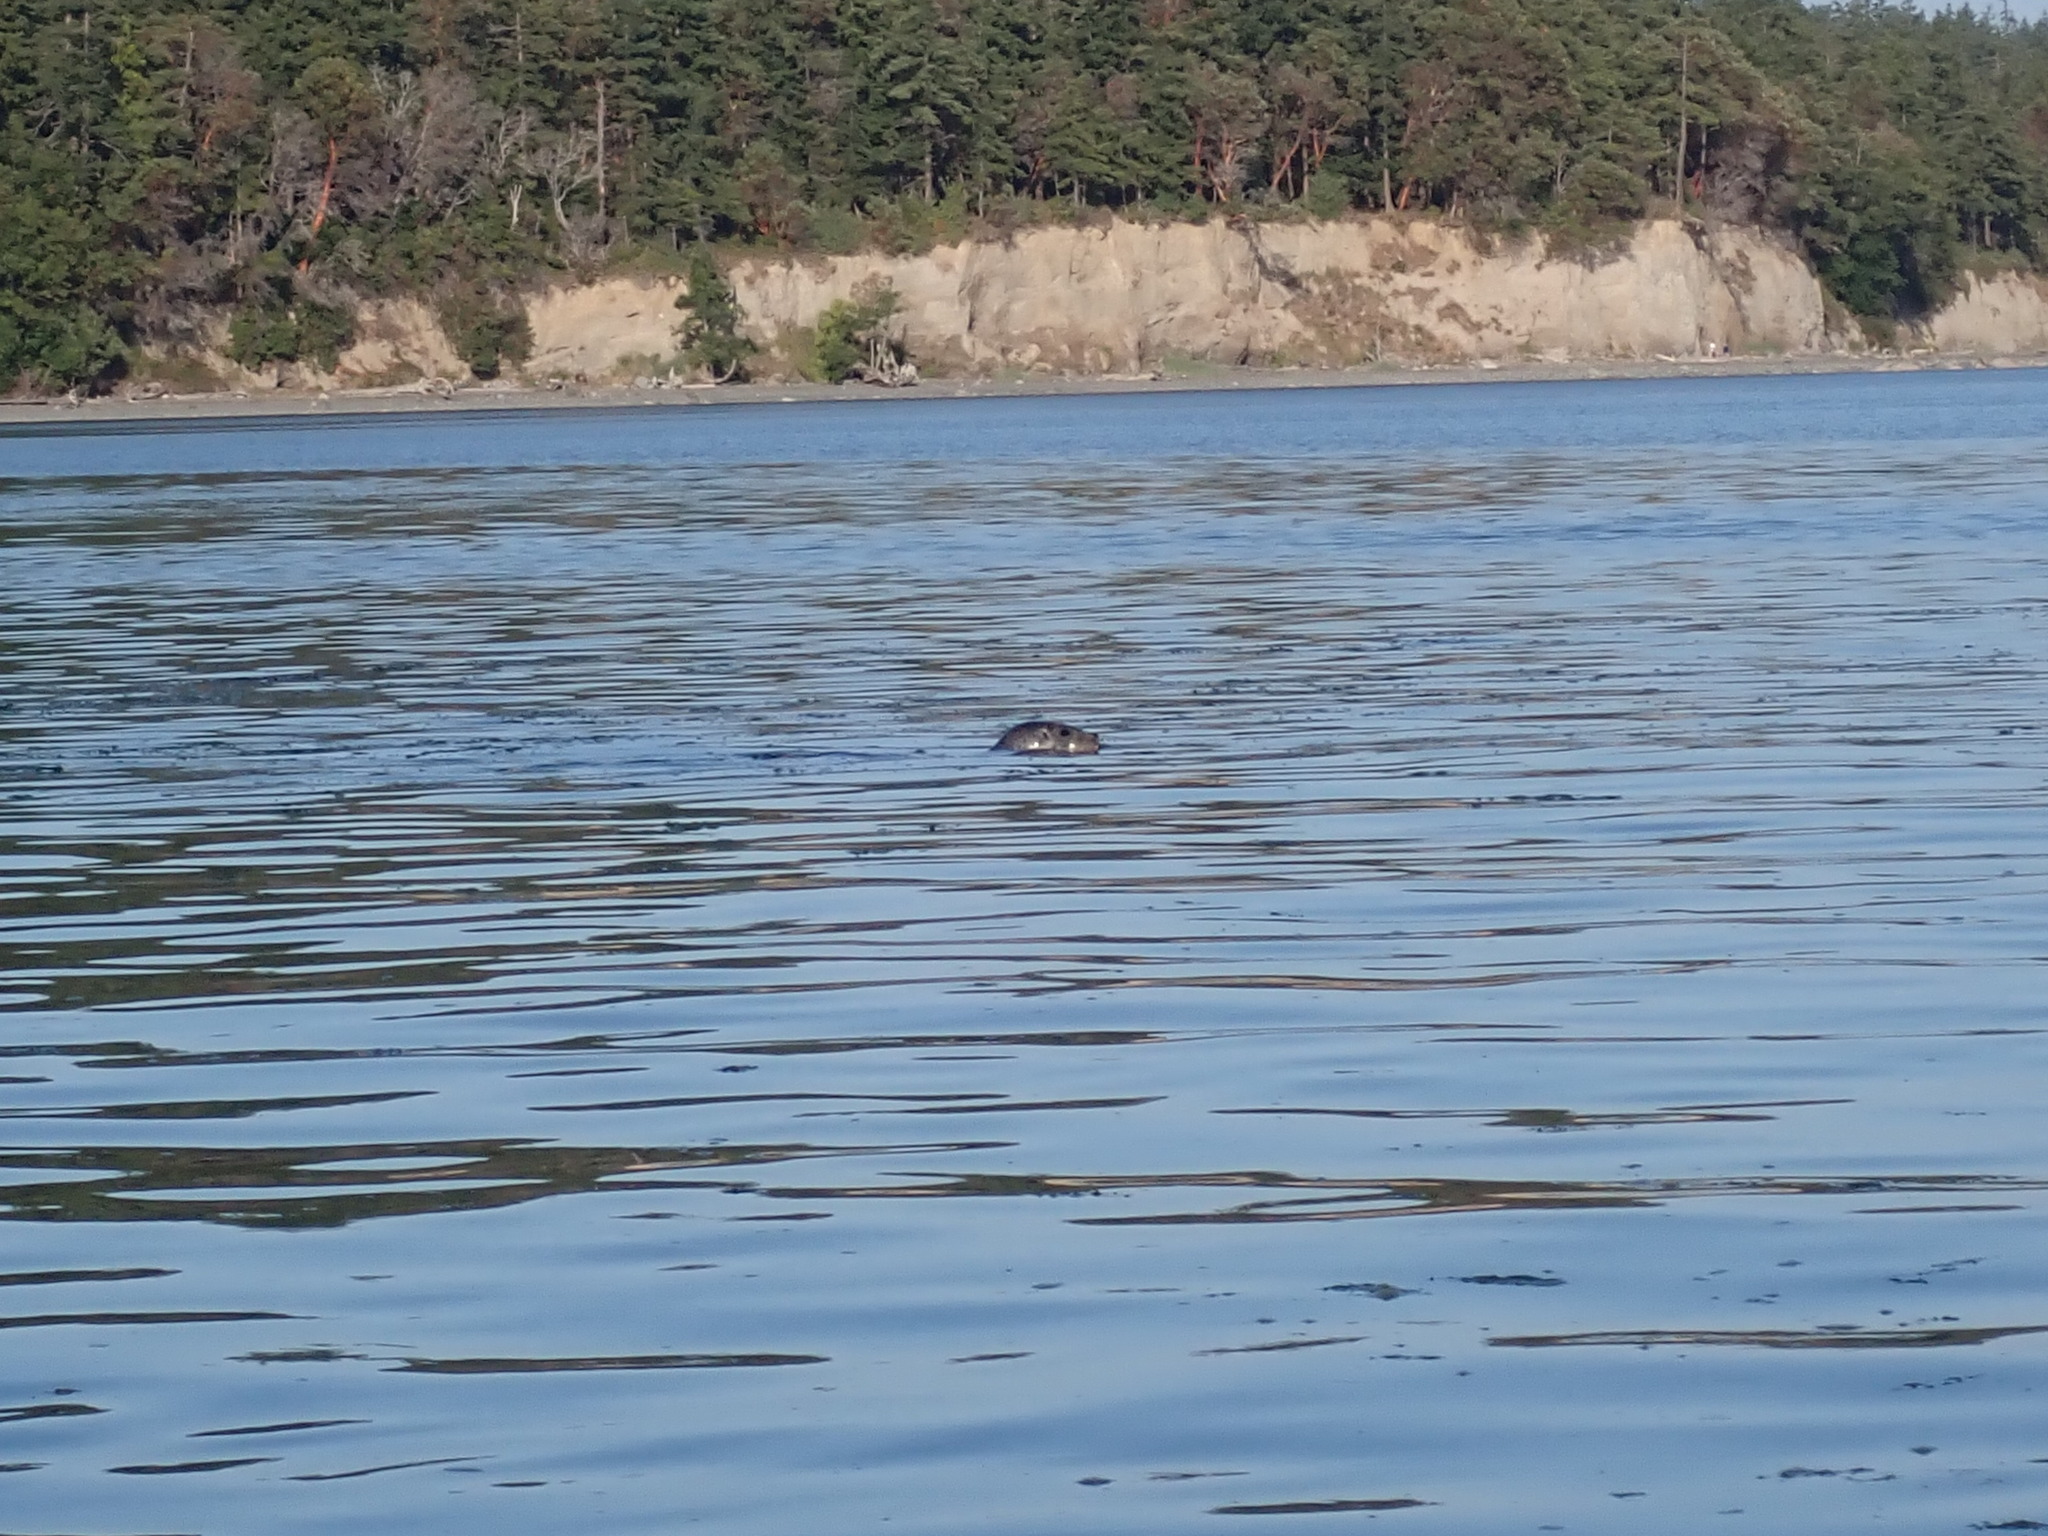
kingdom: Animalia
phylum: Chordata
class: Mammalia
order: Carnivora
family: Phocidae
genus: Phoca
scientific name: Phoca vitulina
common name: Harbor seal
